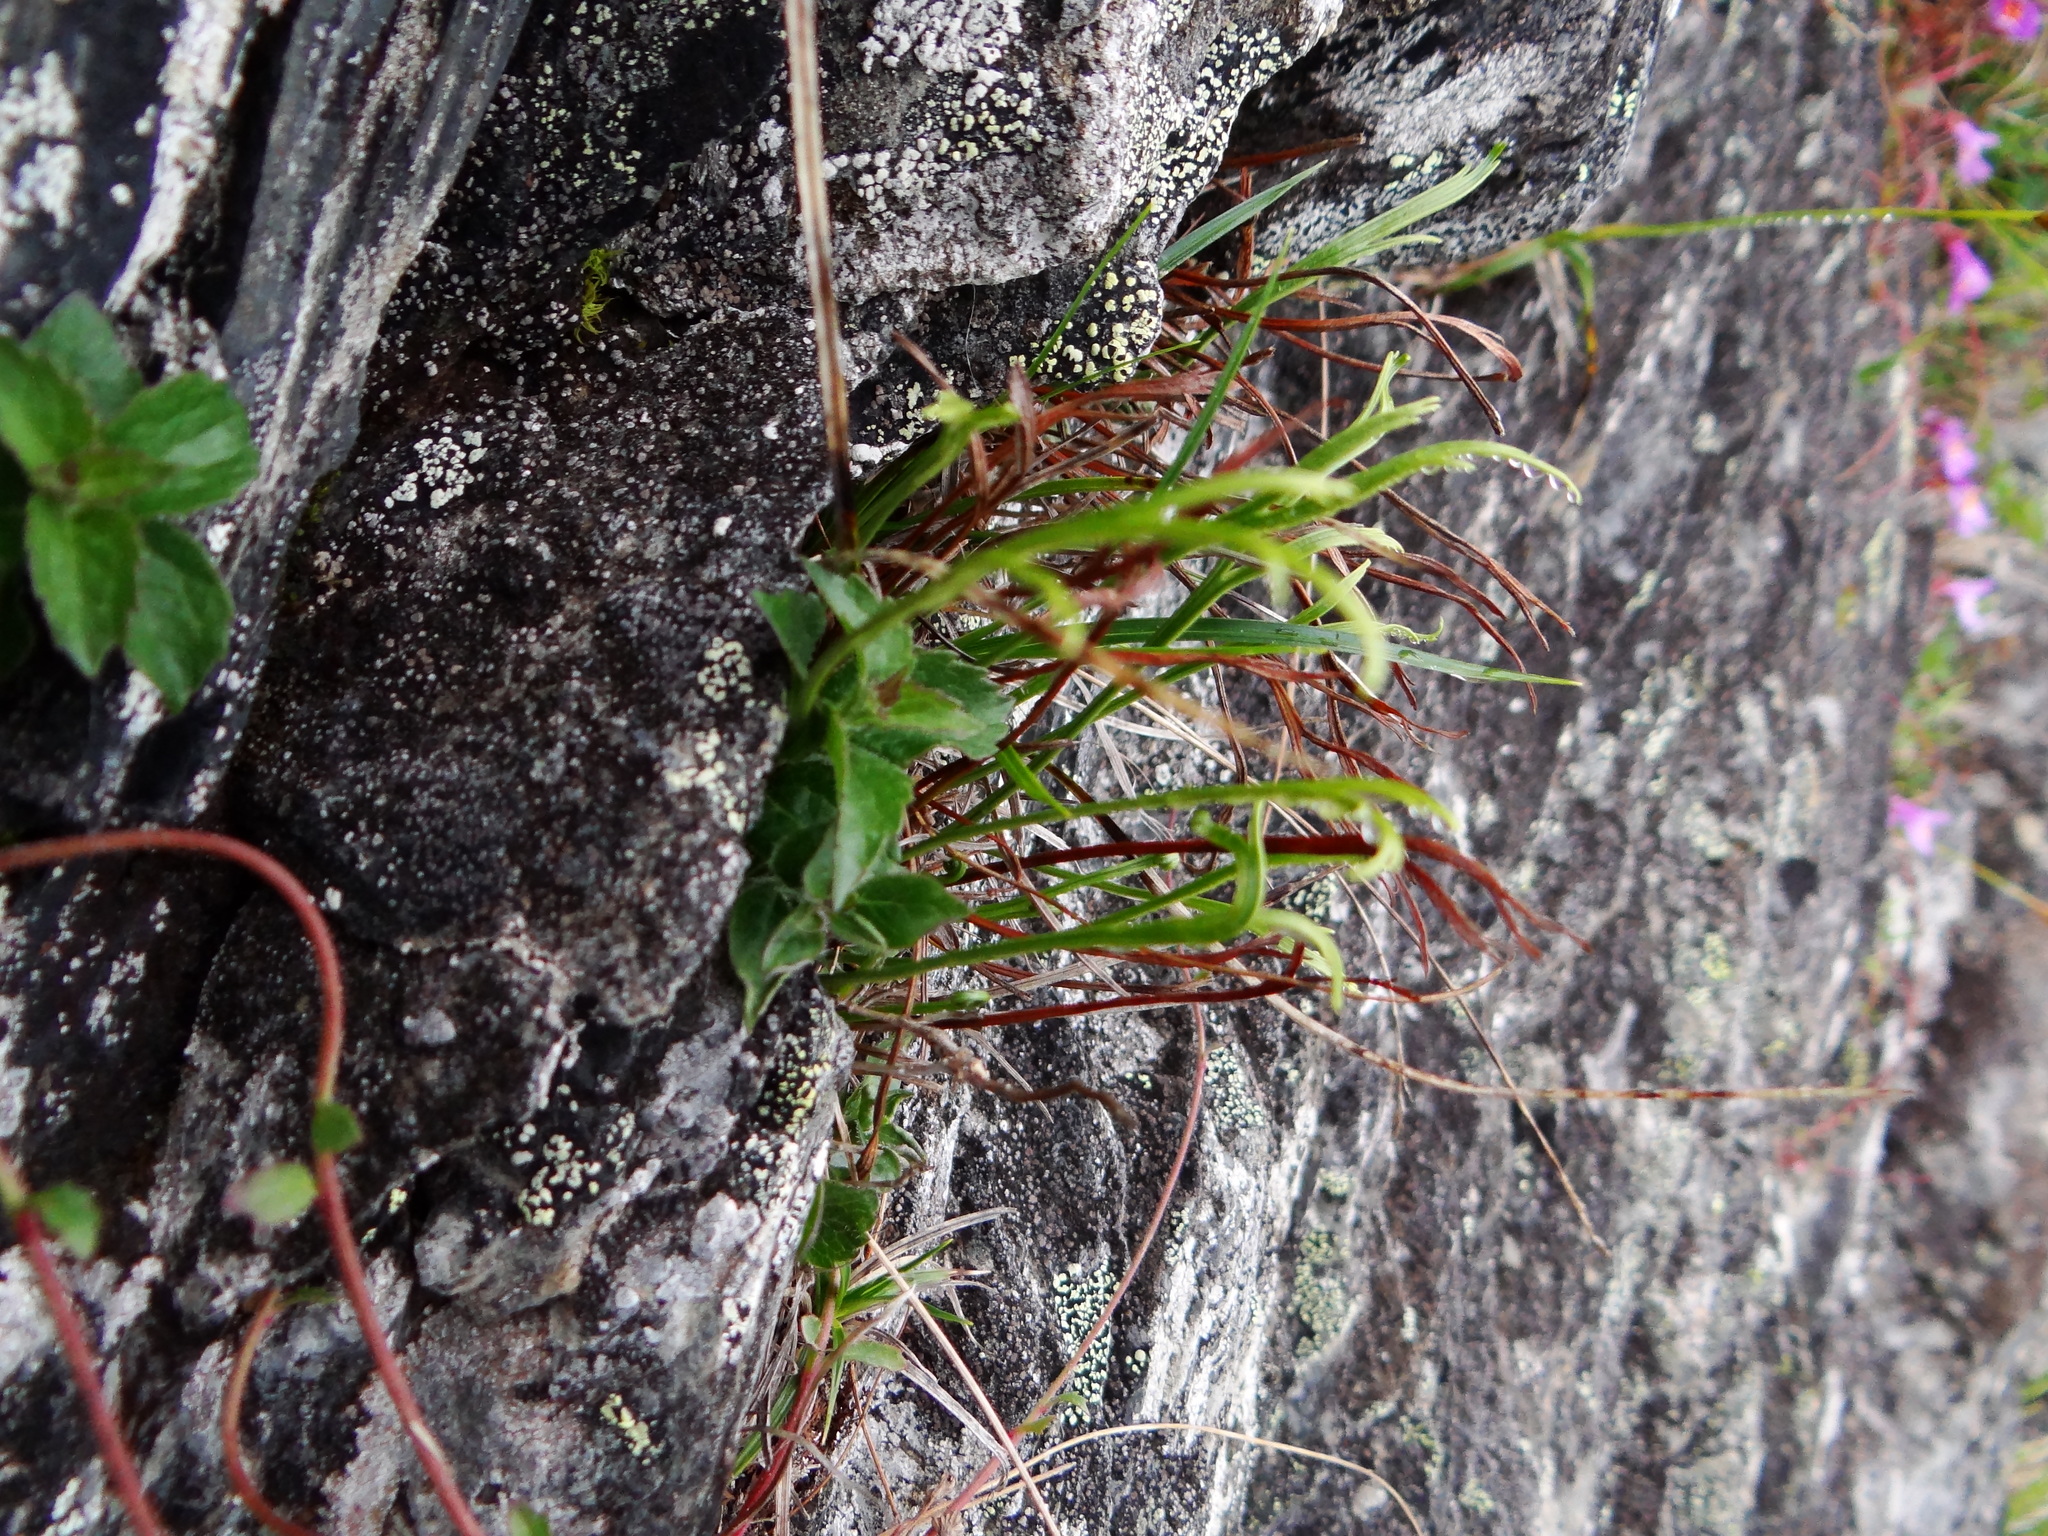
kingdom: Plantae
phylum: Tracheophyta
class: Magnoliopsida
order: Lamiales
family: Mazaceae
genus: Mazus
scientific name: Mazus alpinus
